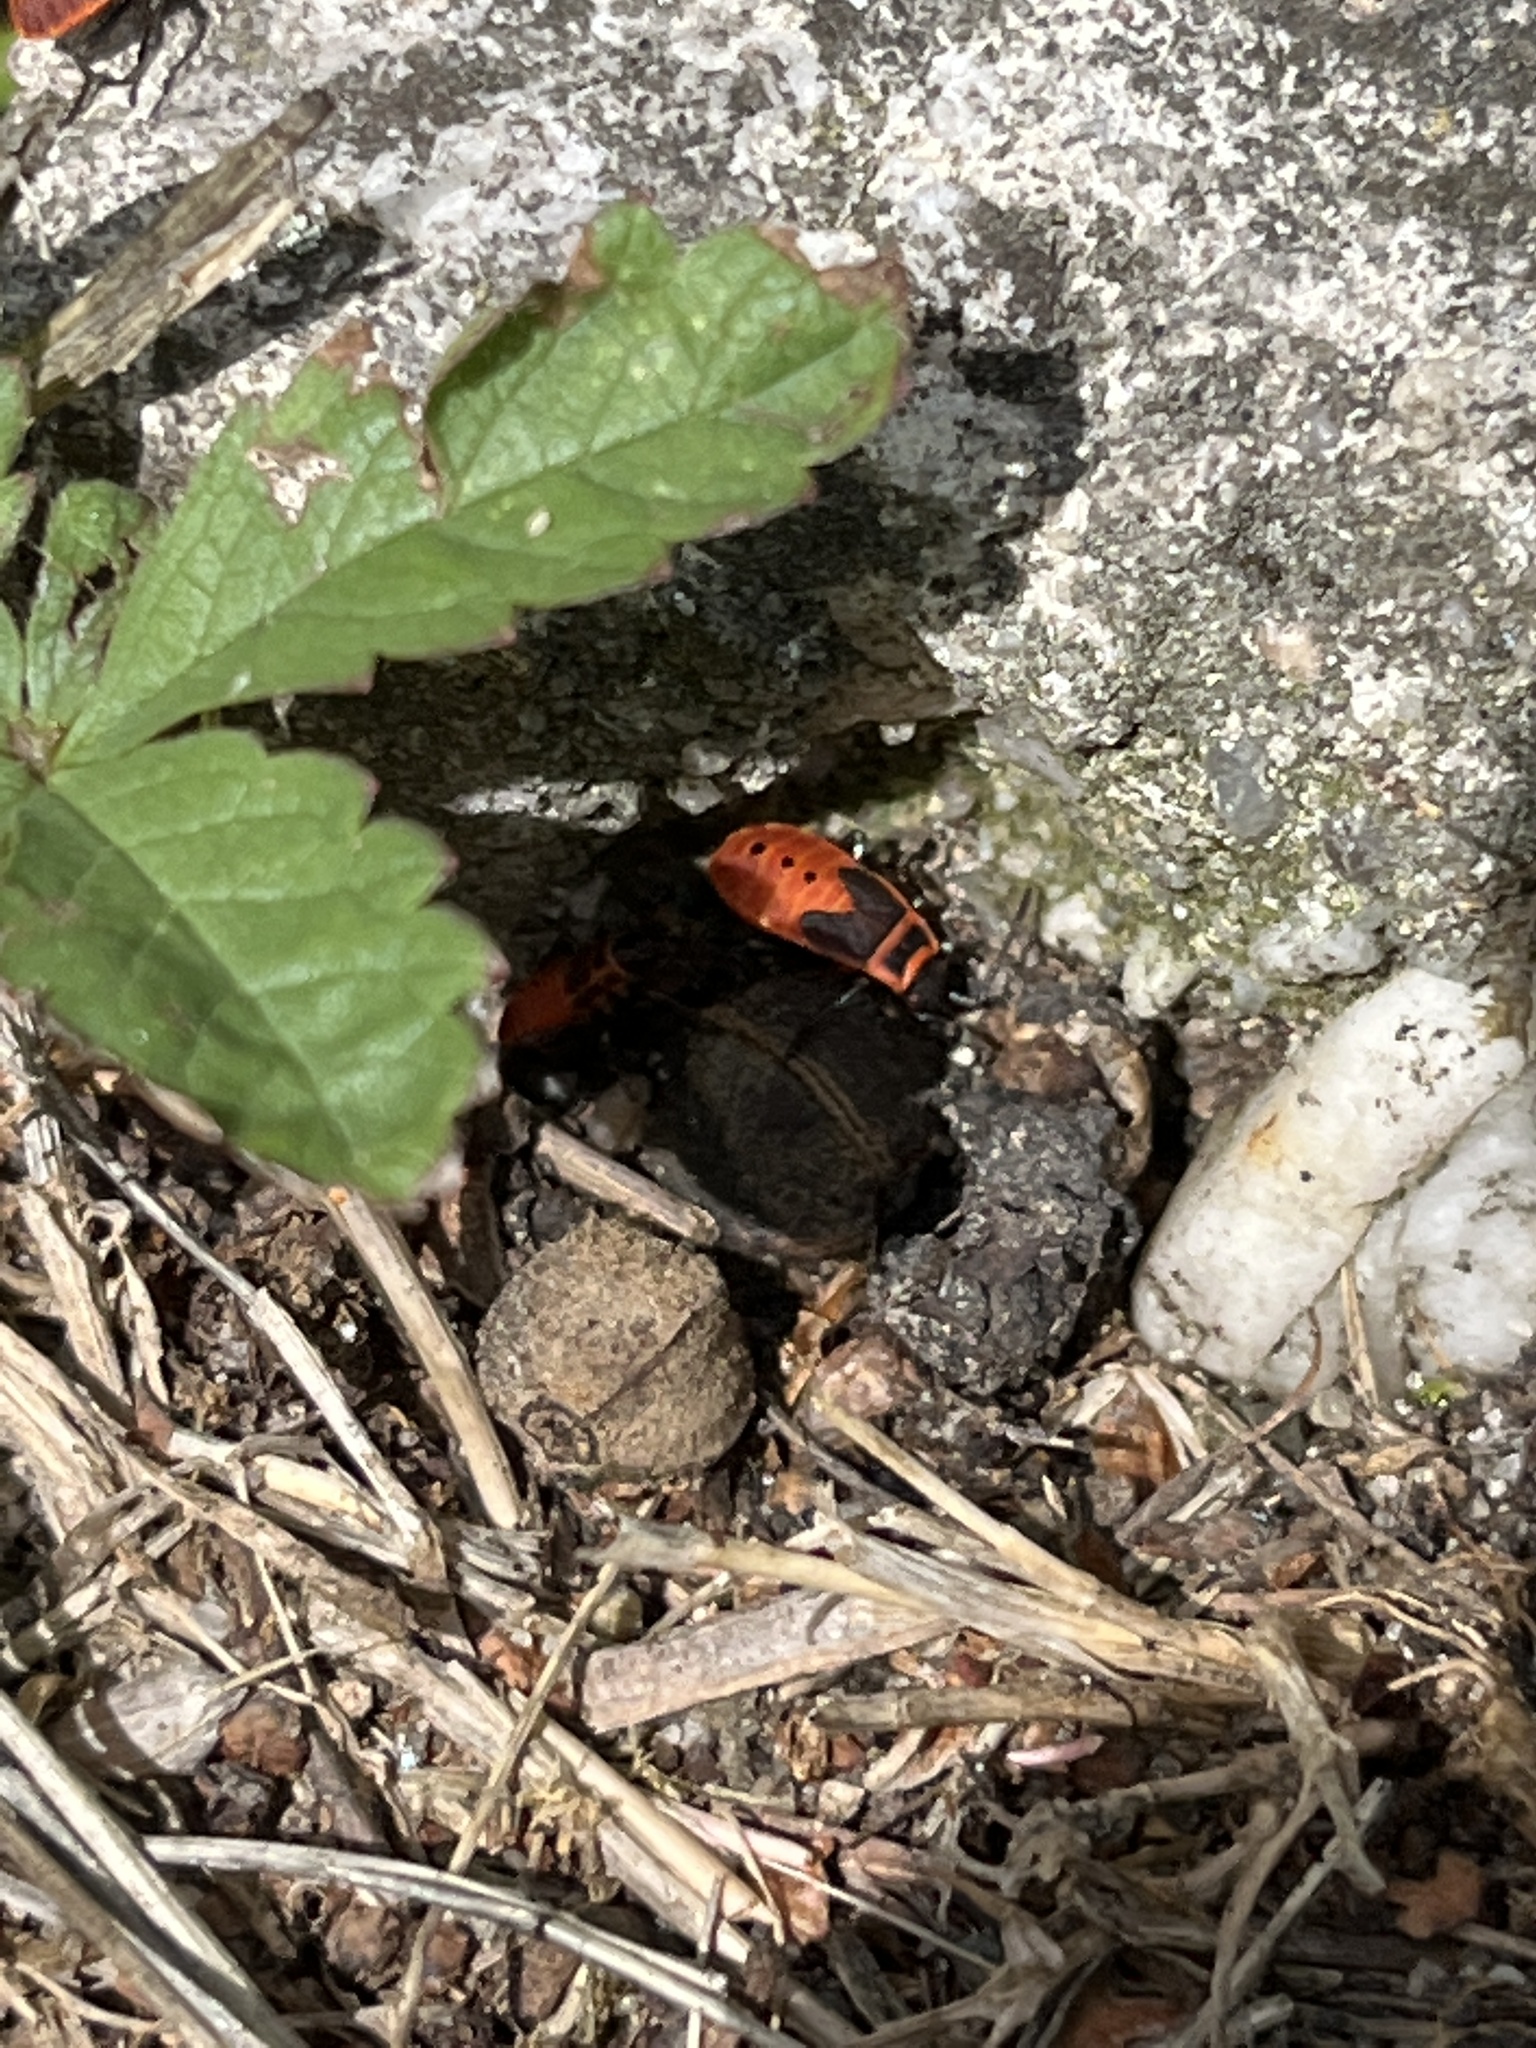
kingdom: Animalia
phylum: Arthropoda
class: Insecta
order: Hemiptera
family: Pyrrhocoridae
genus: Pyrrhocoris
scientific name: Pyrrhocoris apterus
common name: Firebug
